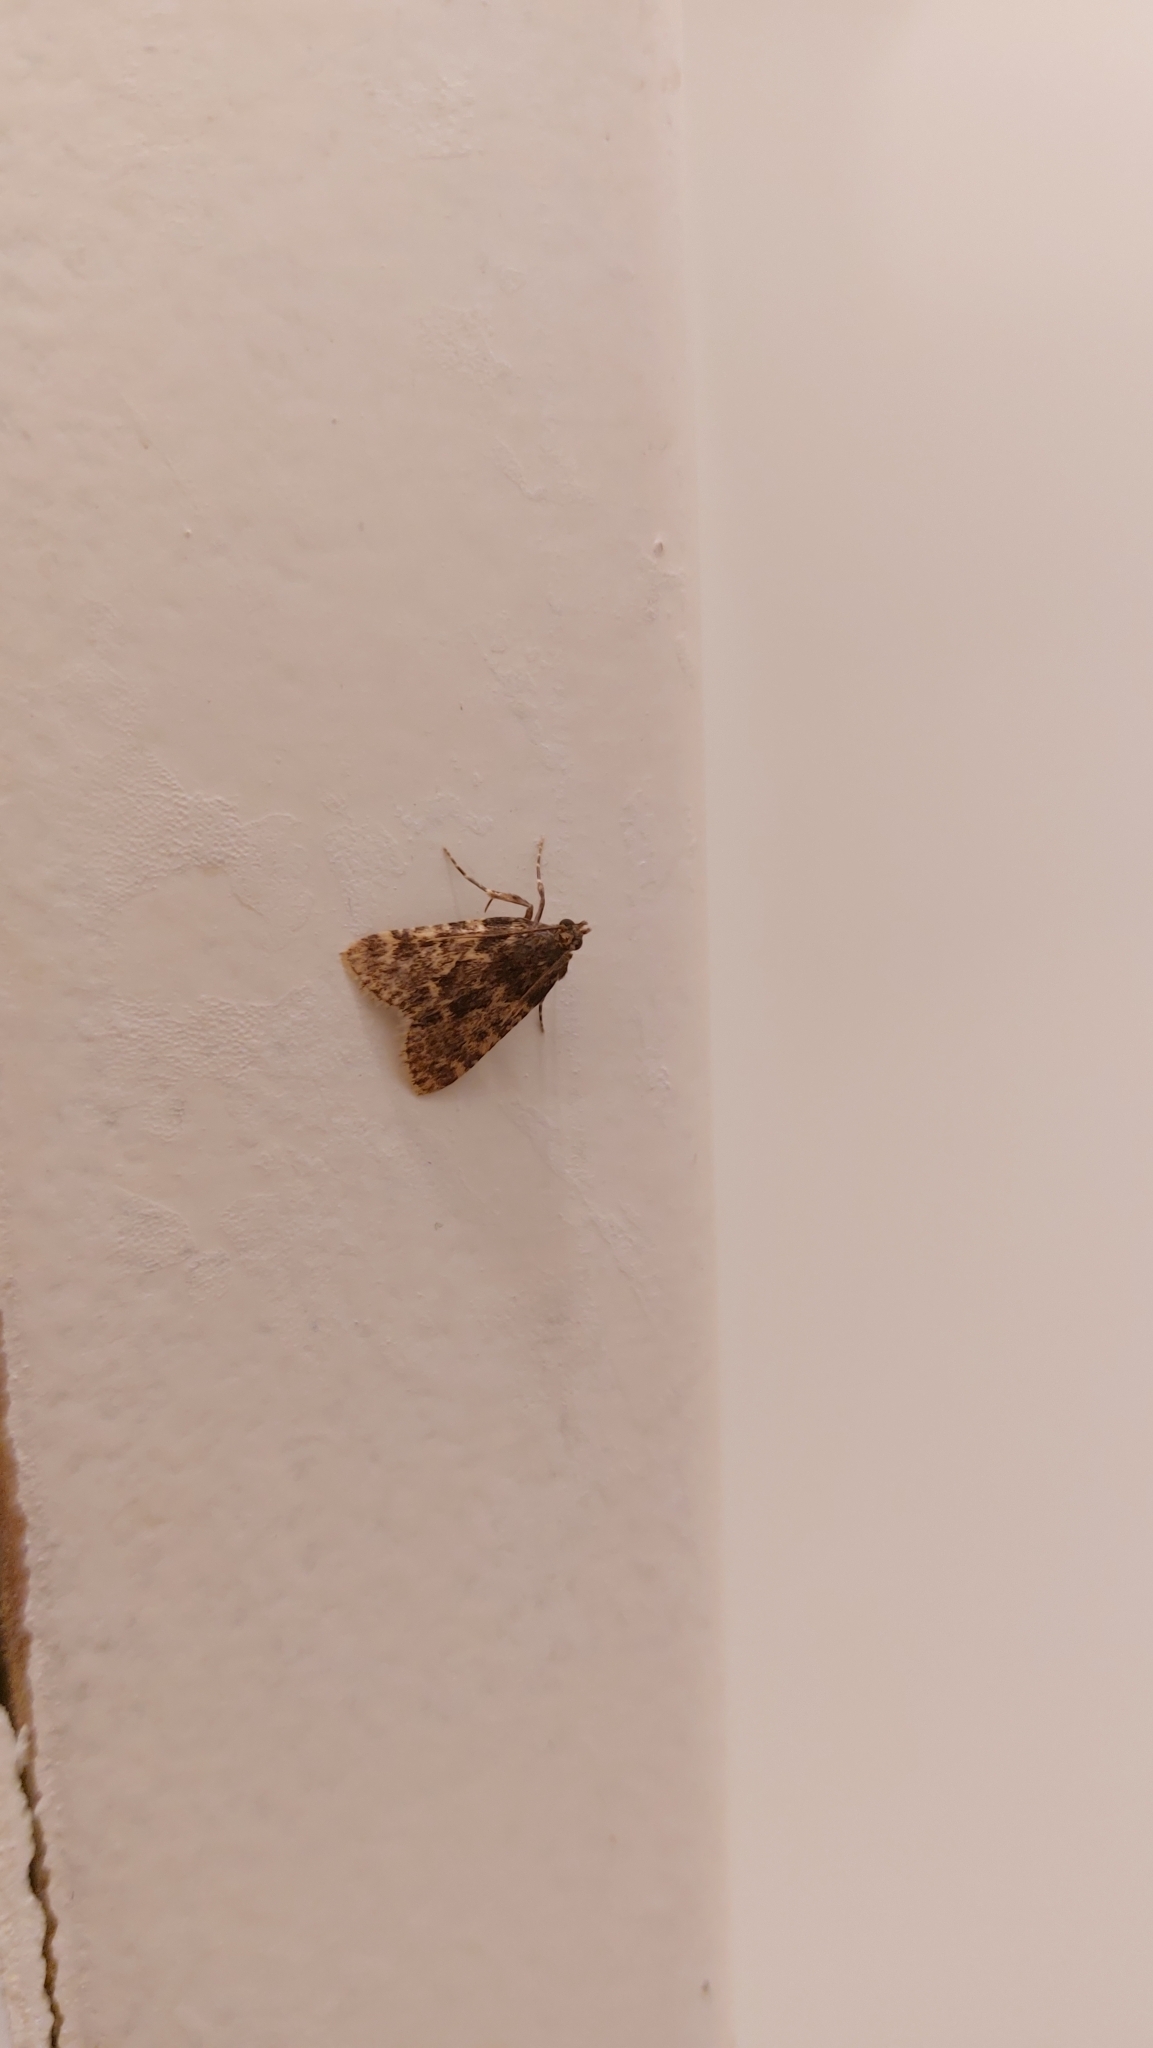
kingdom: Animalia
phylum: Arthropoda
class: Insecta
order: Lepidoptera
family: Pyralidae
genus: Aglossa
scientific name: Aglossa caprealis
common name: Small tabby
